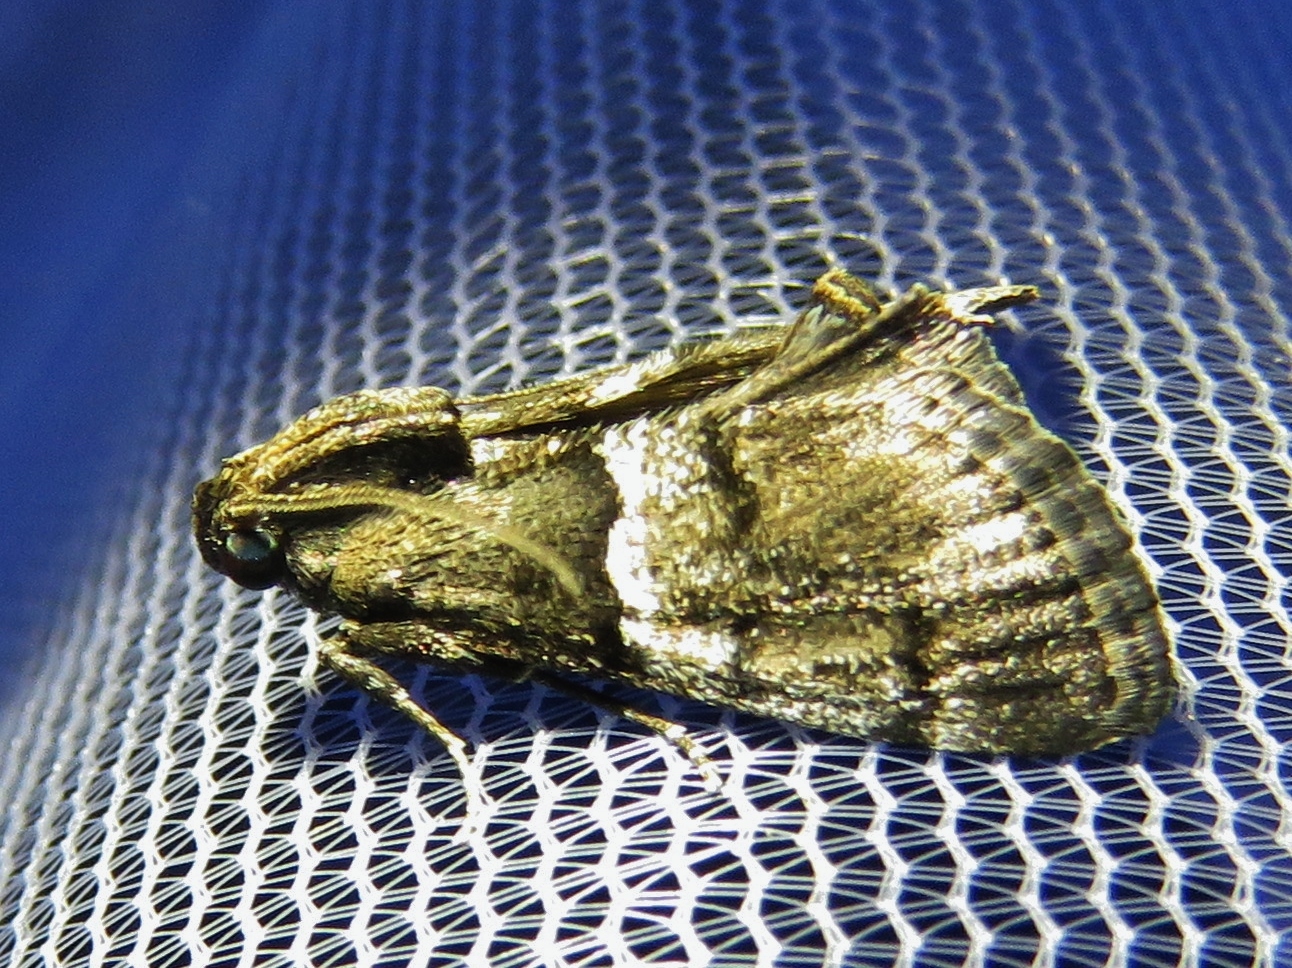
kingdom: Animalia
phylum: Arthropoda
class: Insecta
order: Lepidoptera
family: Pyralidae
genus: Macalla
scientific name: Macalla zelleri
